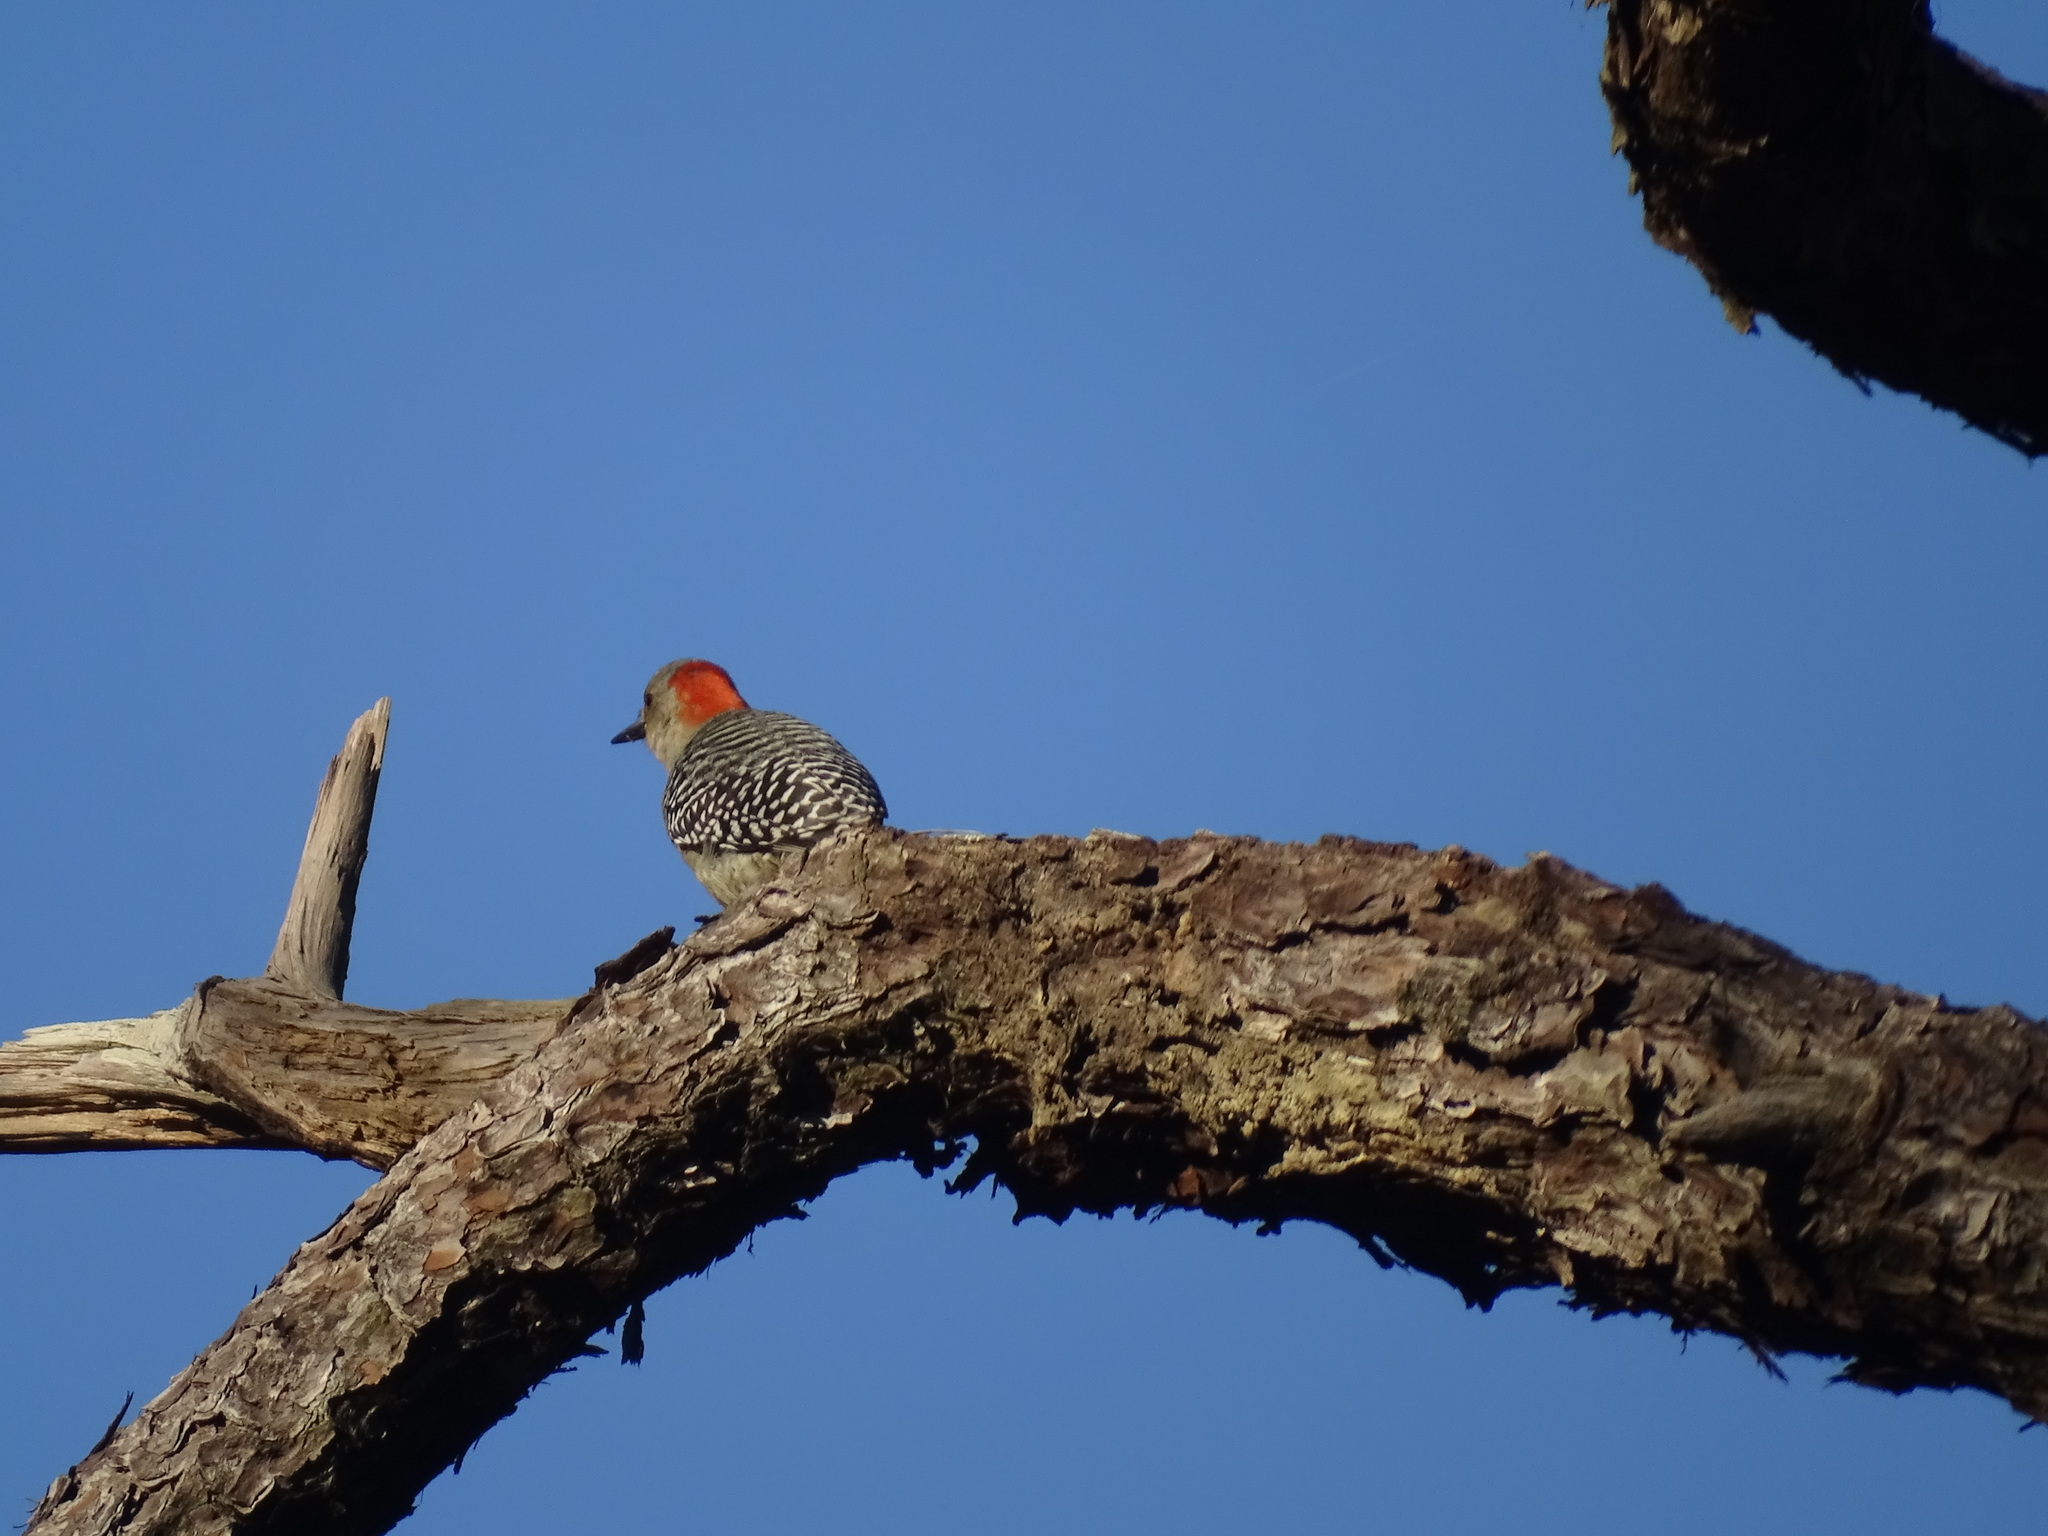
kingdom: Animalia
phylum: Chordata
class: Aves
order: Piciformes
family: Picidae
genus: Melanerpes
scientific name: Melanerpes carolinus
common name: Red-bellied woodpecker
